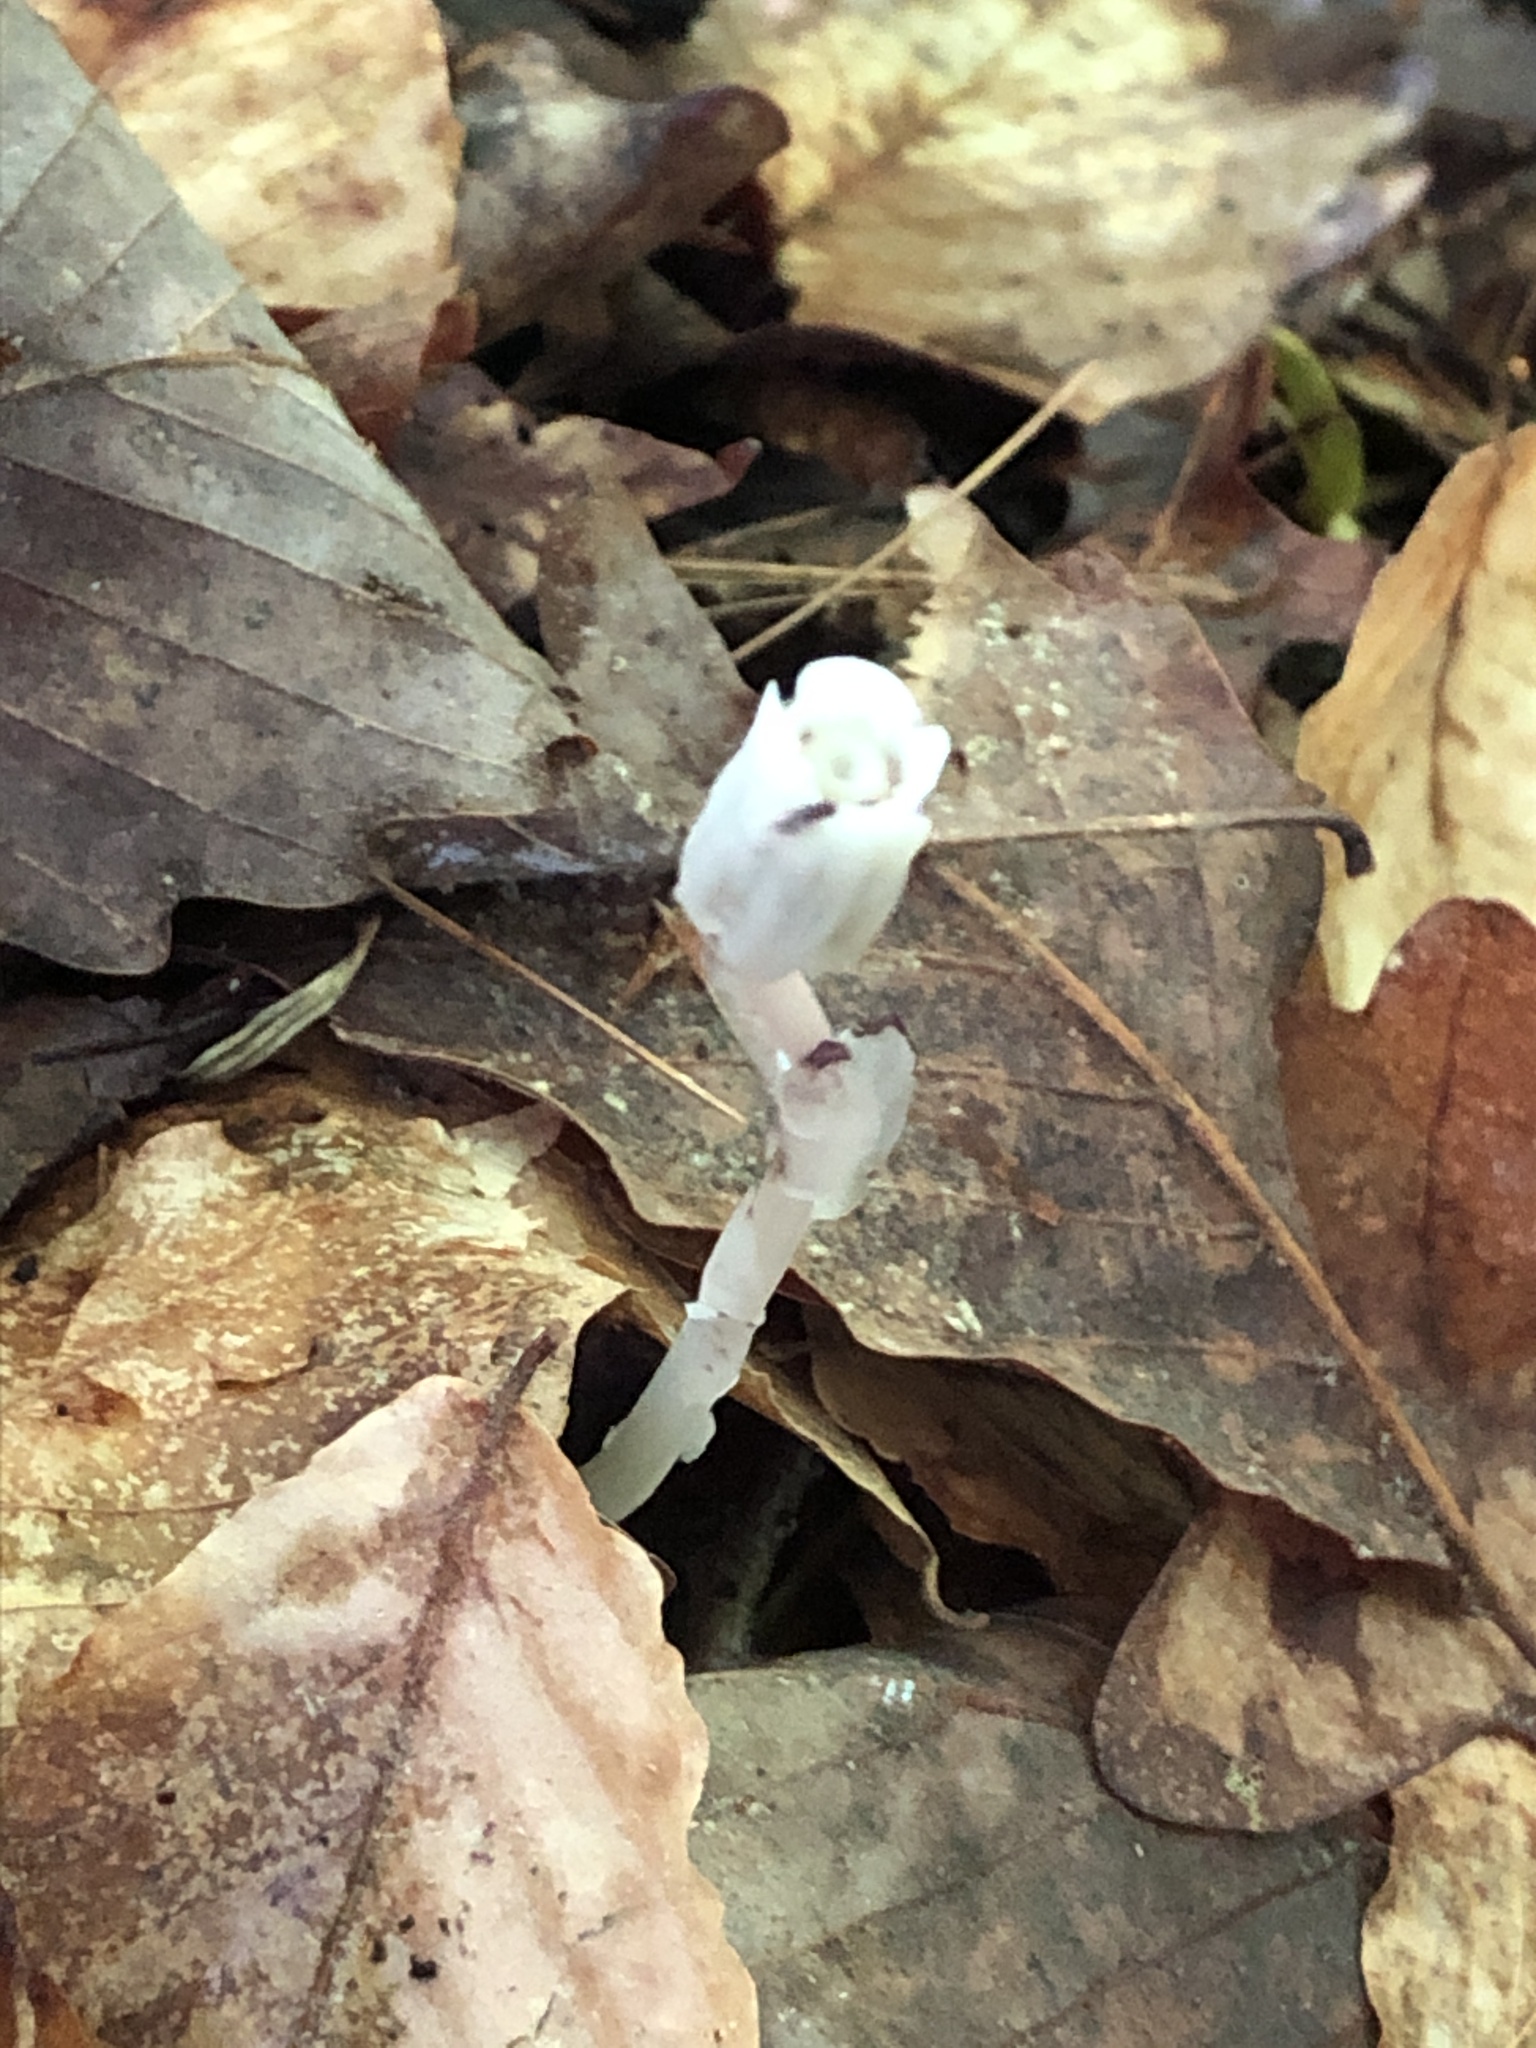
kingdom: Plantae
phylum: Tracheophyta
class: Magnoliopsida
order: Ericales
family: Ericaceae
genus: Monotropa
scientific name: Monotropa uniflora
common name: Convulsion root
